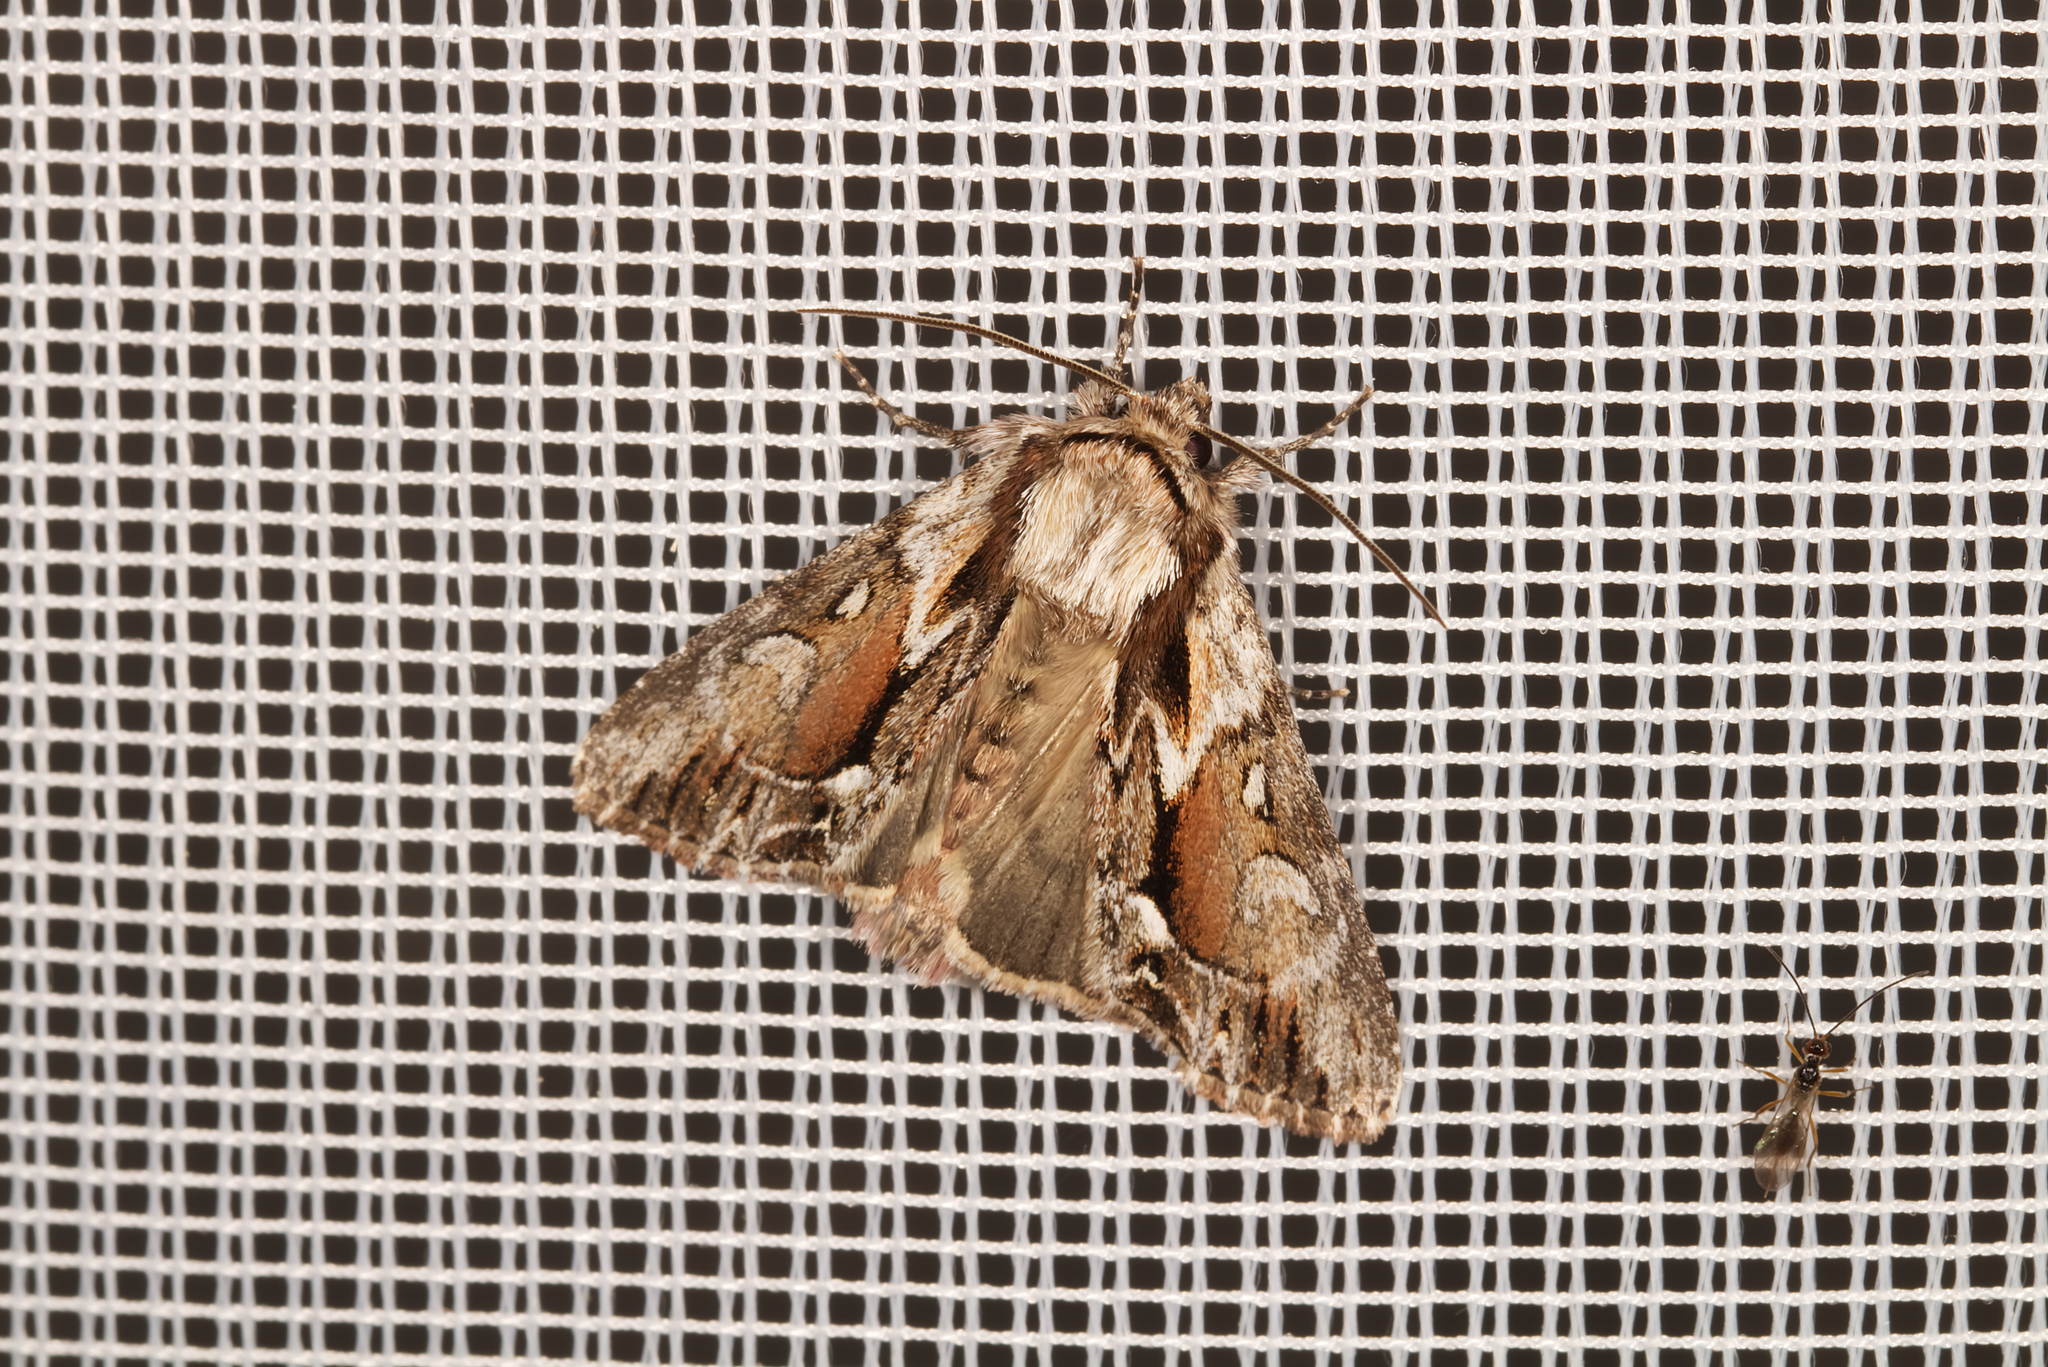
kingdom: Animalia
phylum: Arthropoda
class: Insecta
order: Lepidoptera
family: Noctuidae
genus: Hyppa
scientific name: Hyppa rectilinea
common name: Saxon
